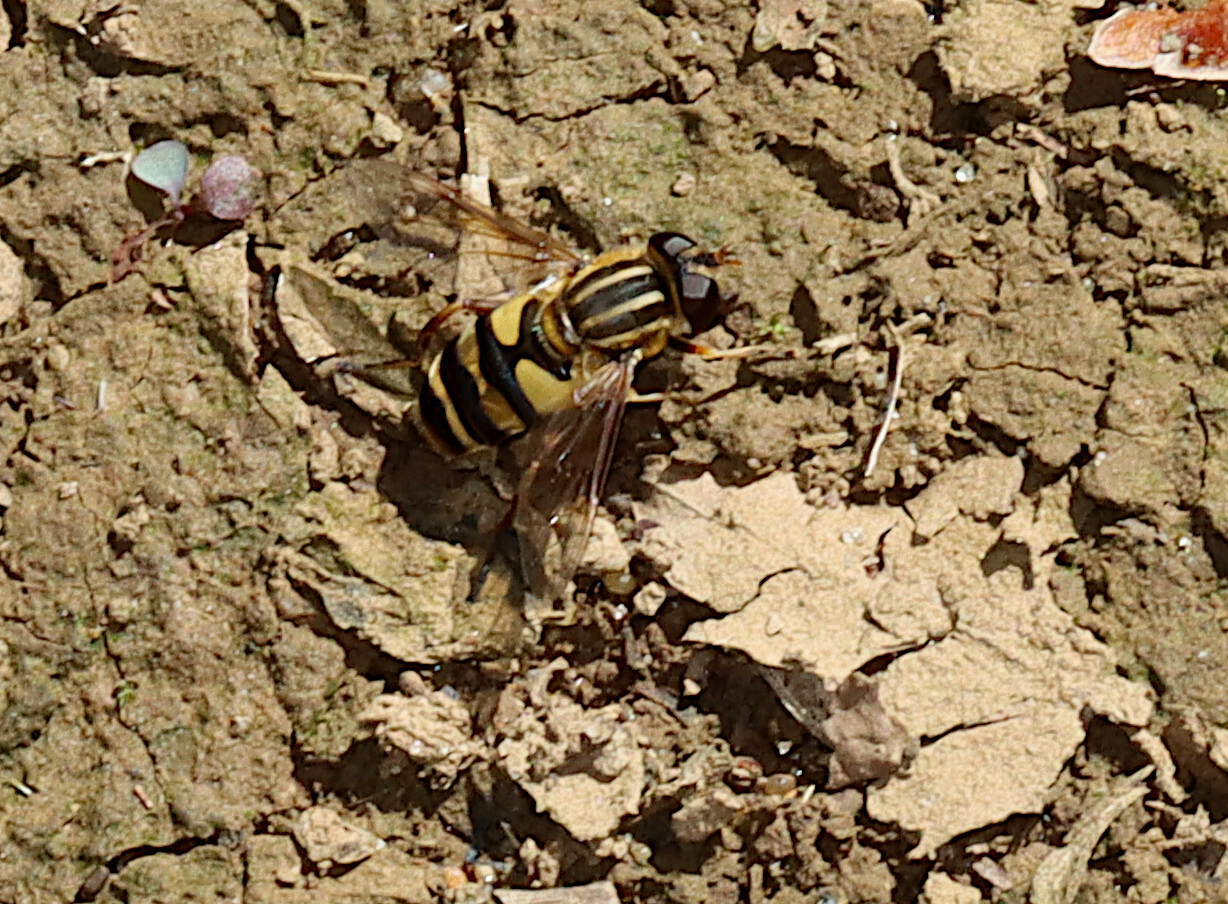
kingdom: Animalia
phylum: Arthropoda
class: Insecta
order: Diptera
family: Syrphidae
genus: Helophilus
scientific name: Helophilus fasciatus
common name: Narrow-headed marsh fly
